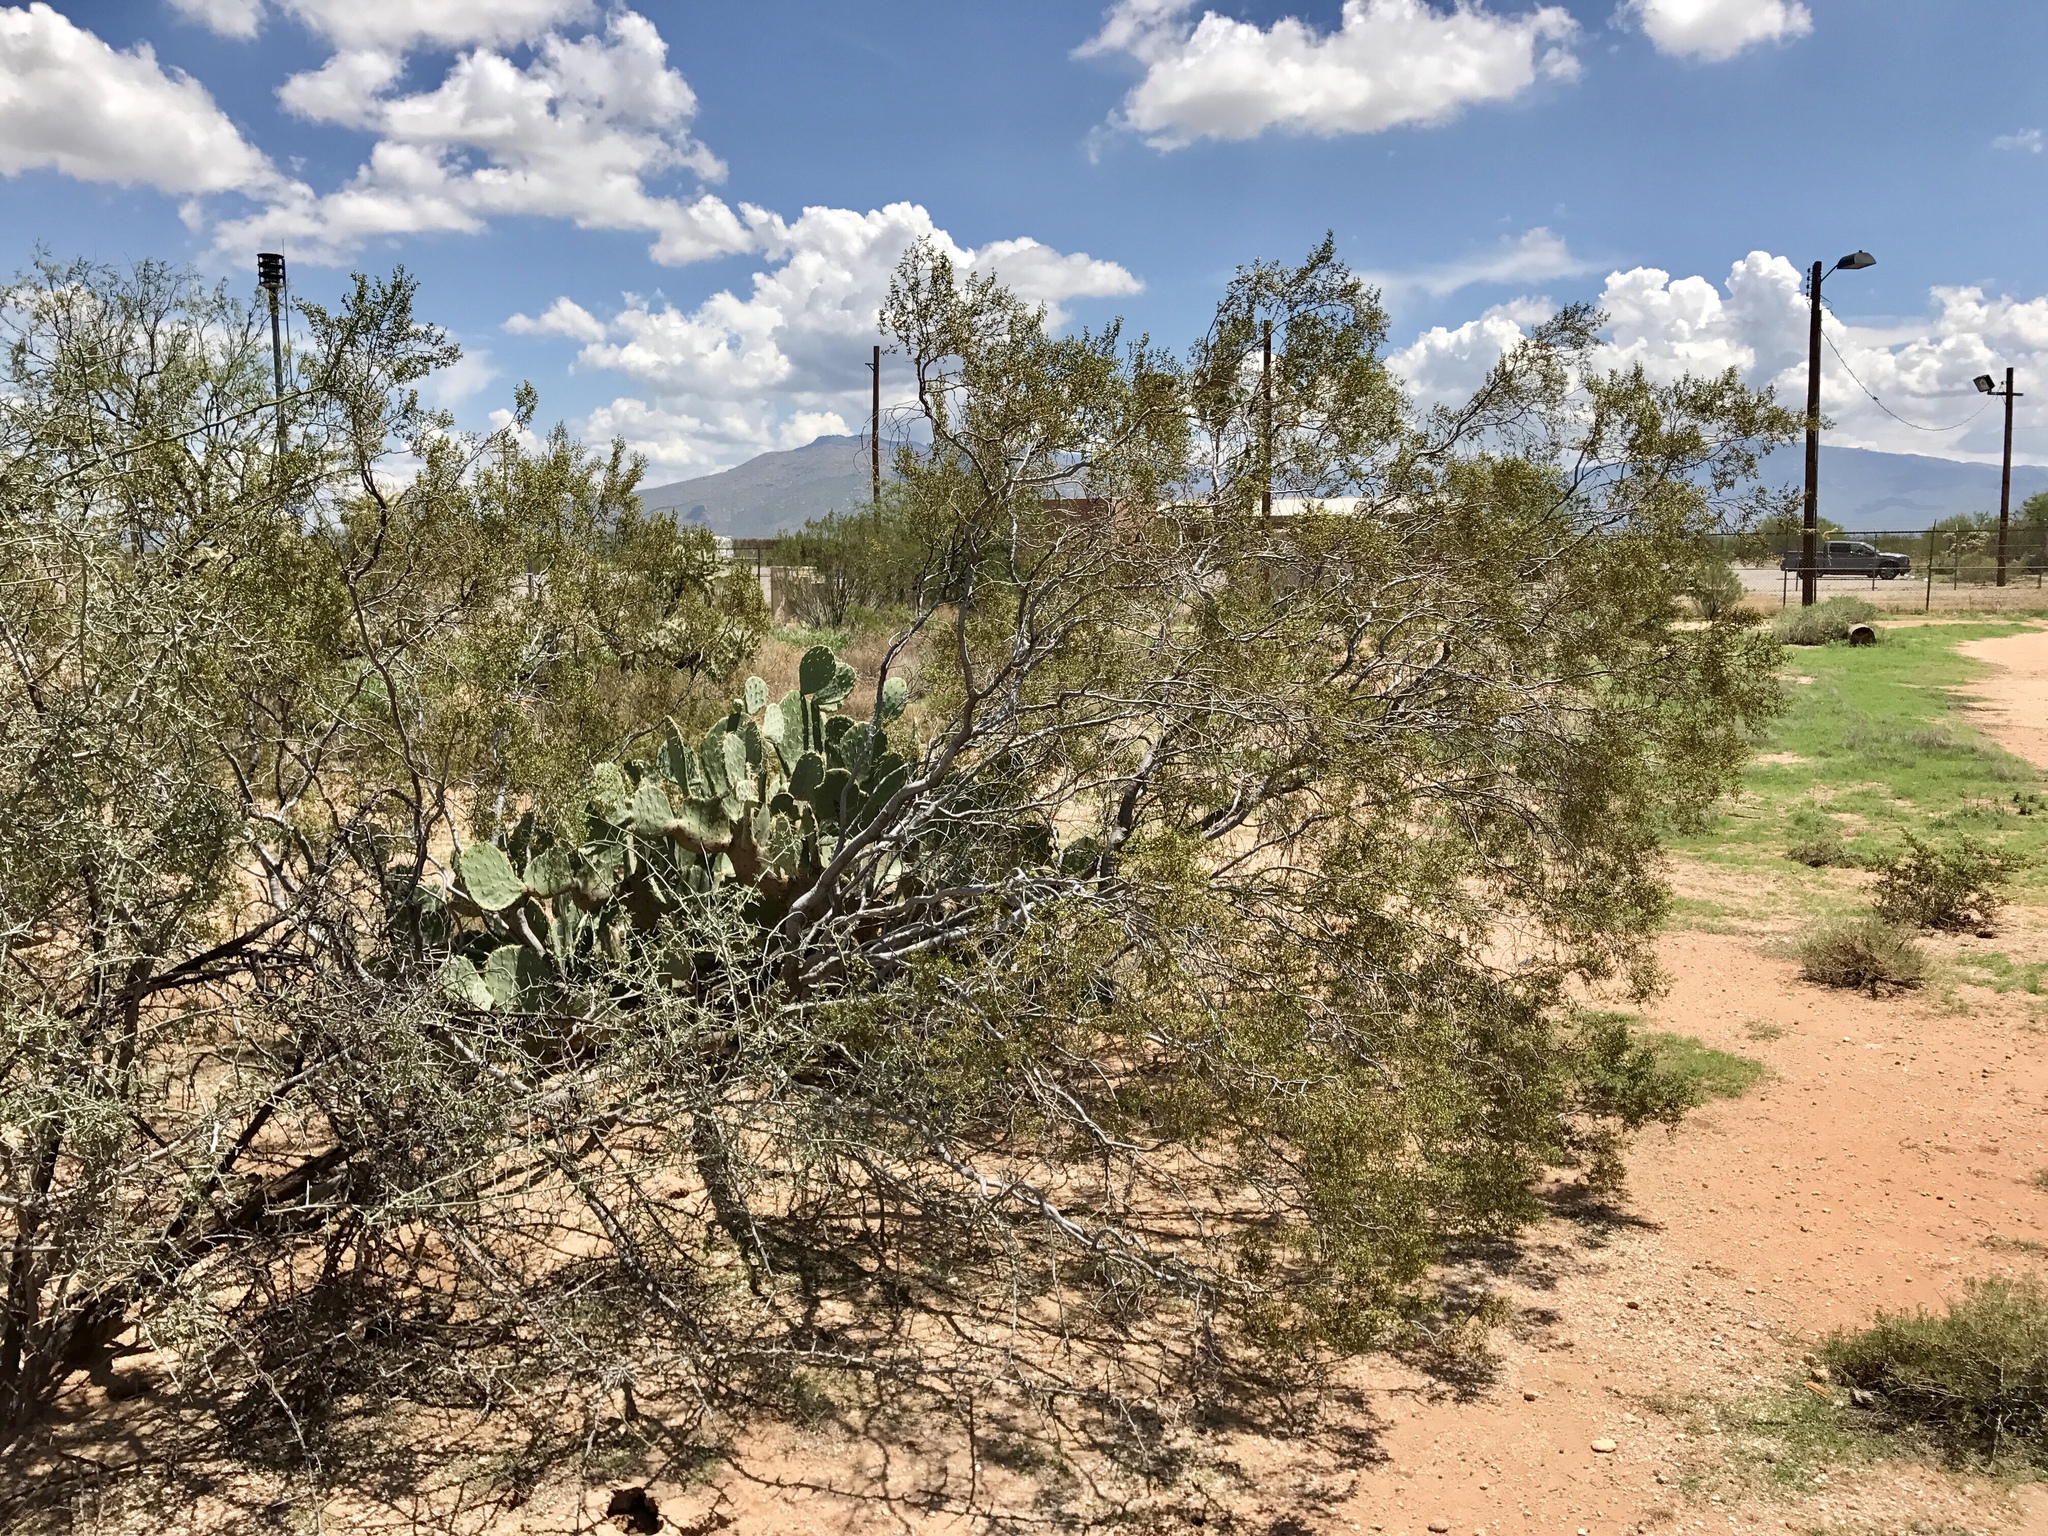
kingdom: Plantae
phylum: Tracheophyta
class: Magnoliopsida
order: Zygophyllales
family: Zygophyllaceae
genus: Larrea
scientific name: Larrea tridentata
